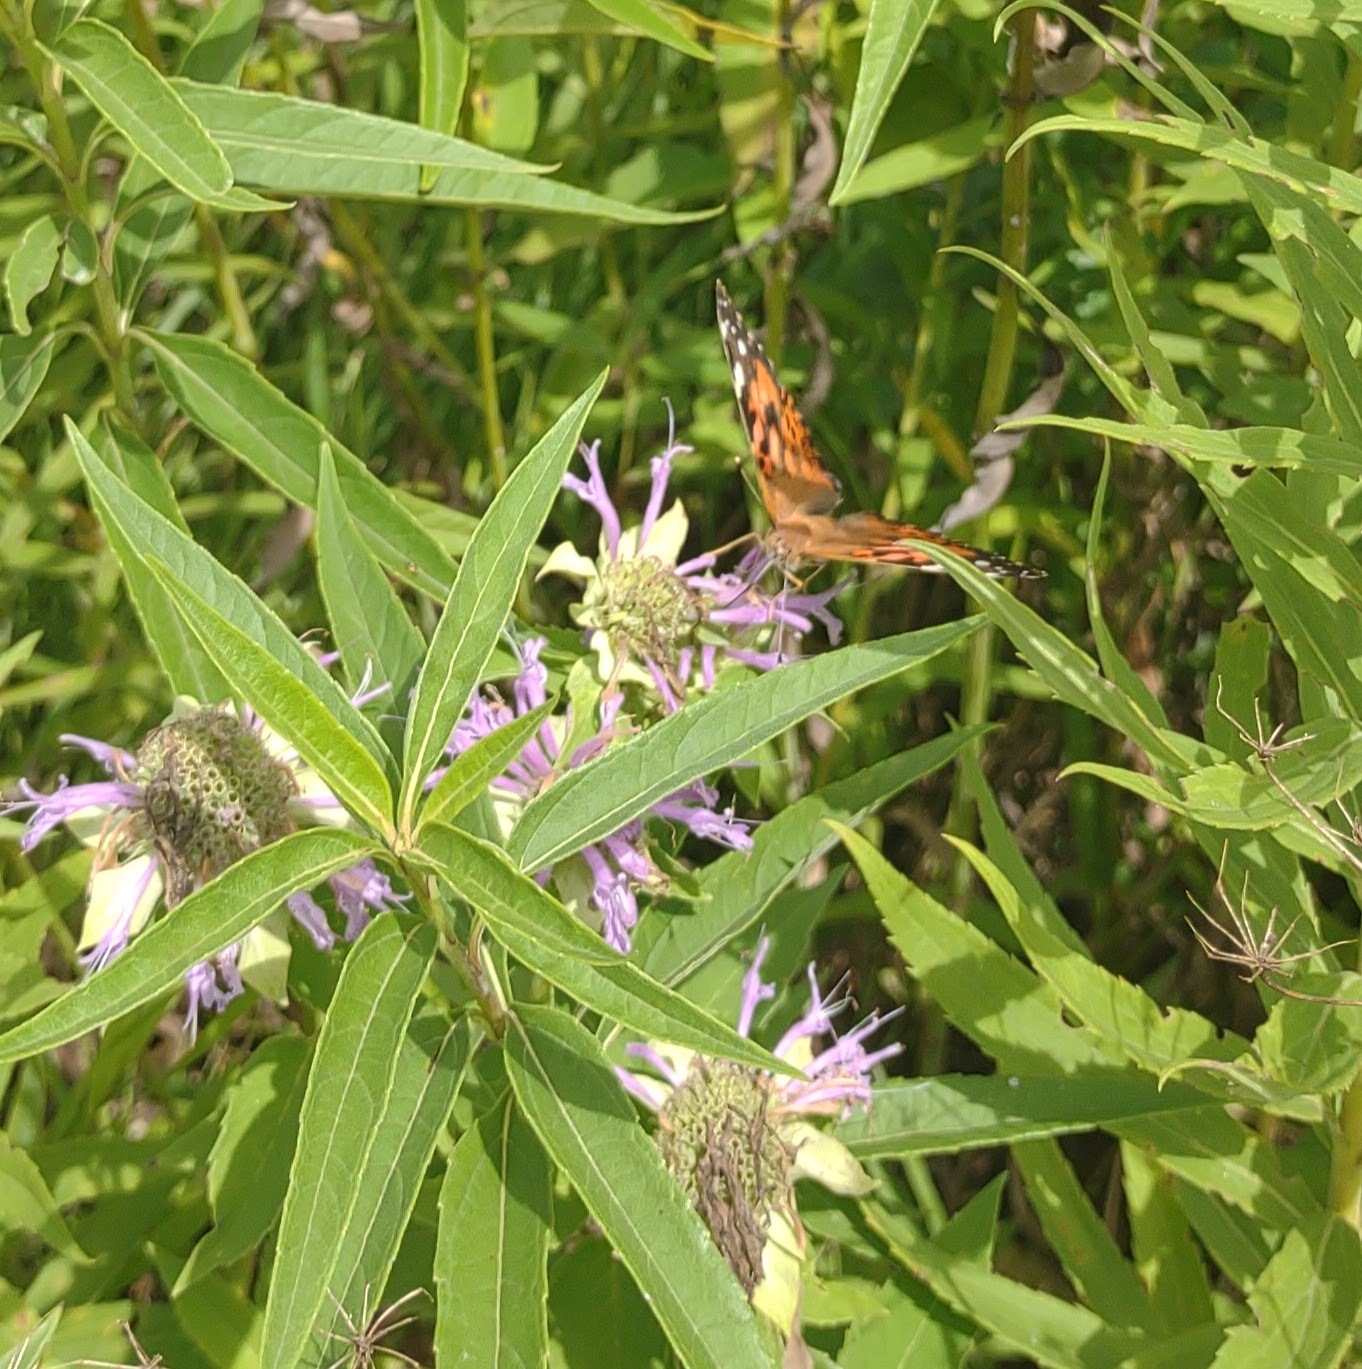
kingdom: Animalia
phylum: Arthropoda
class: Insecta
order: Lepidoptera
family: Nymphalidae
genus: Vanessa
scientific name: Vanessa cardui
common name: Painted lady
